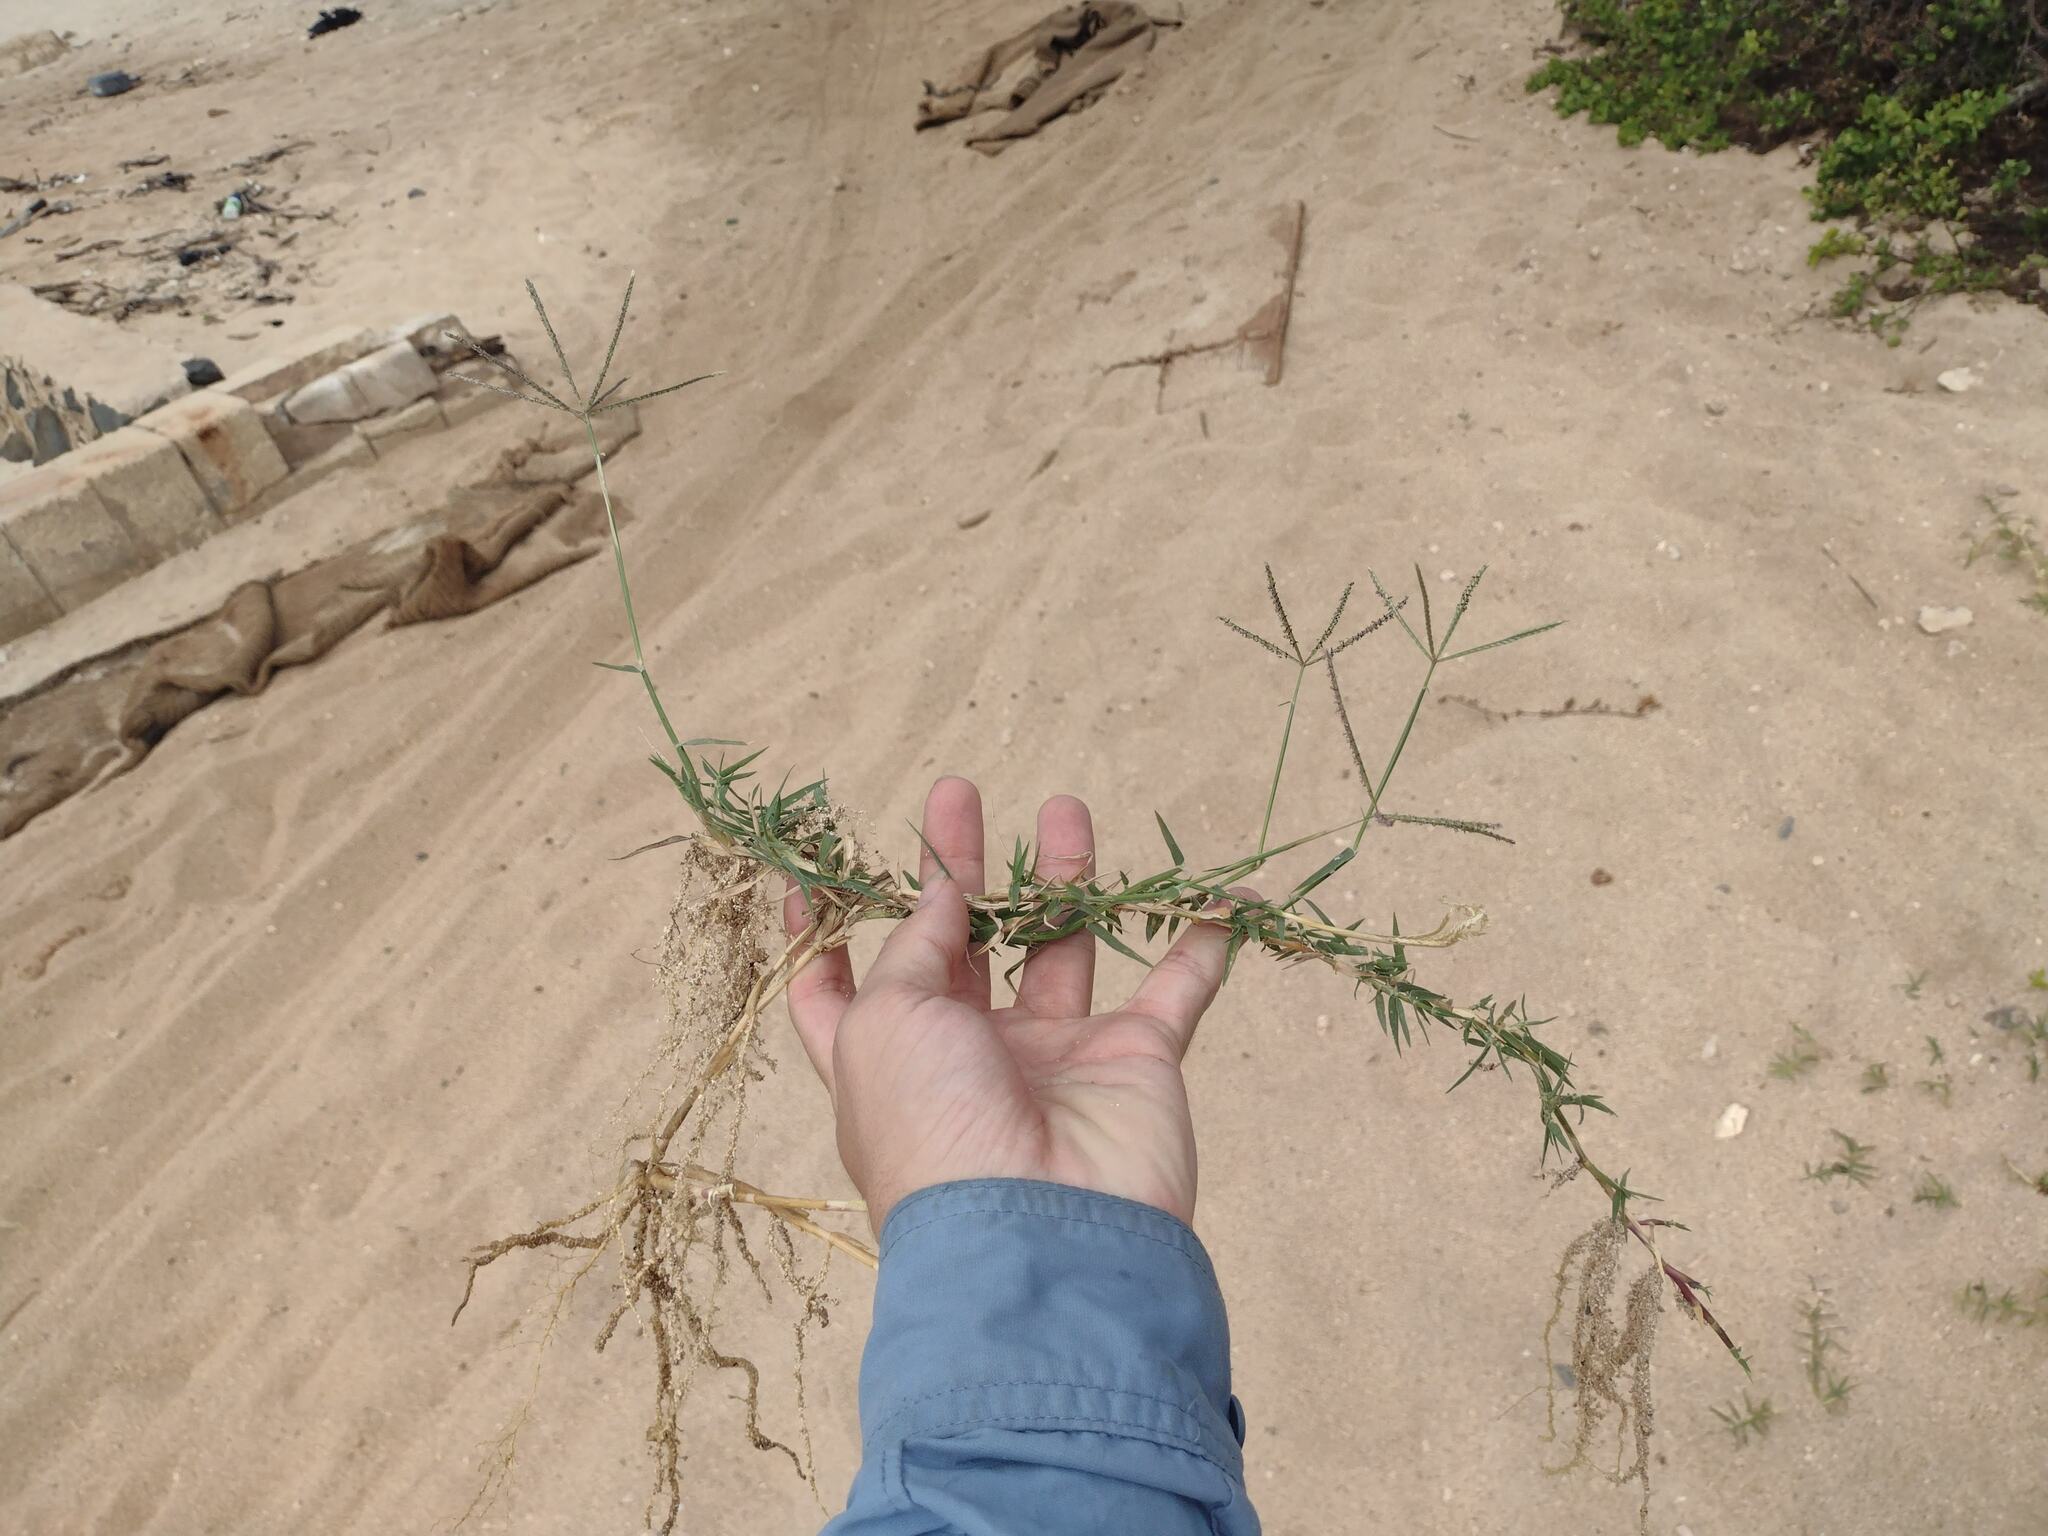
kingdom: Plantae
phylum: Tracheophyta
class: Liliopsida
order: Poales
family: Poaceae
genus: Cynodon
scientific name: Cynodon nlemfuensis
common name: African bermudagrass
